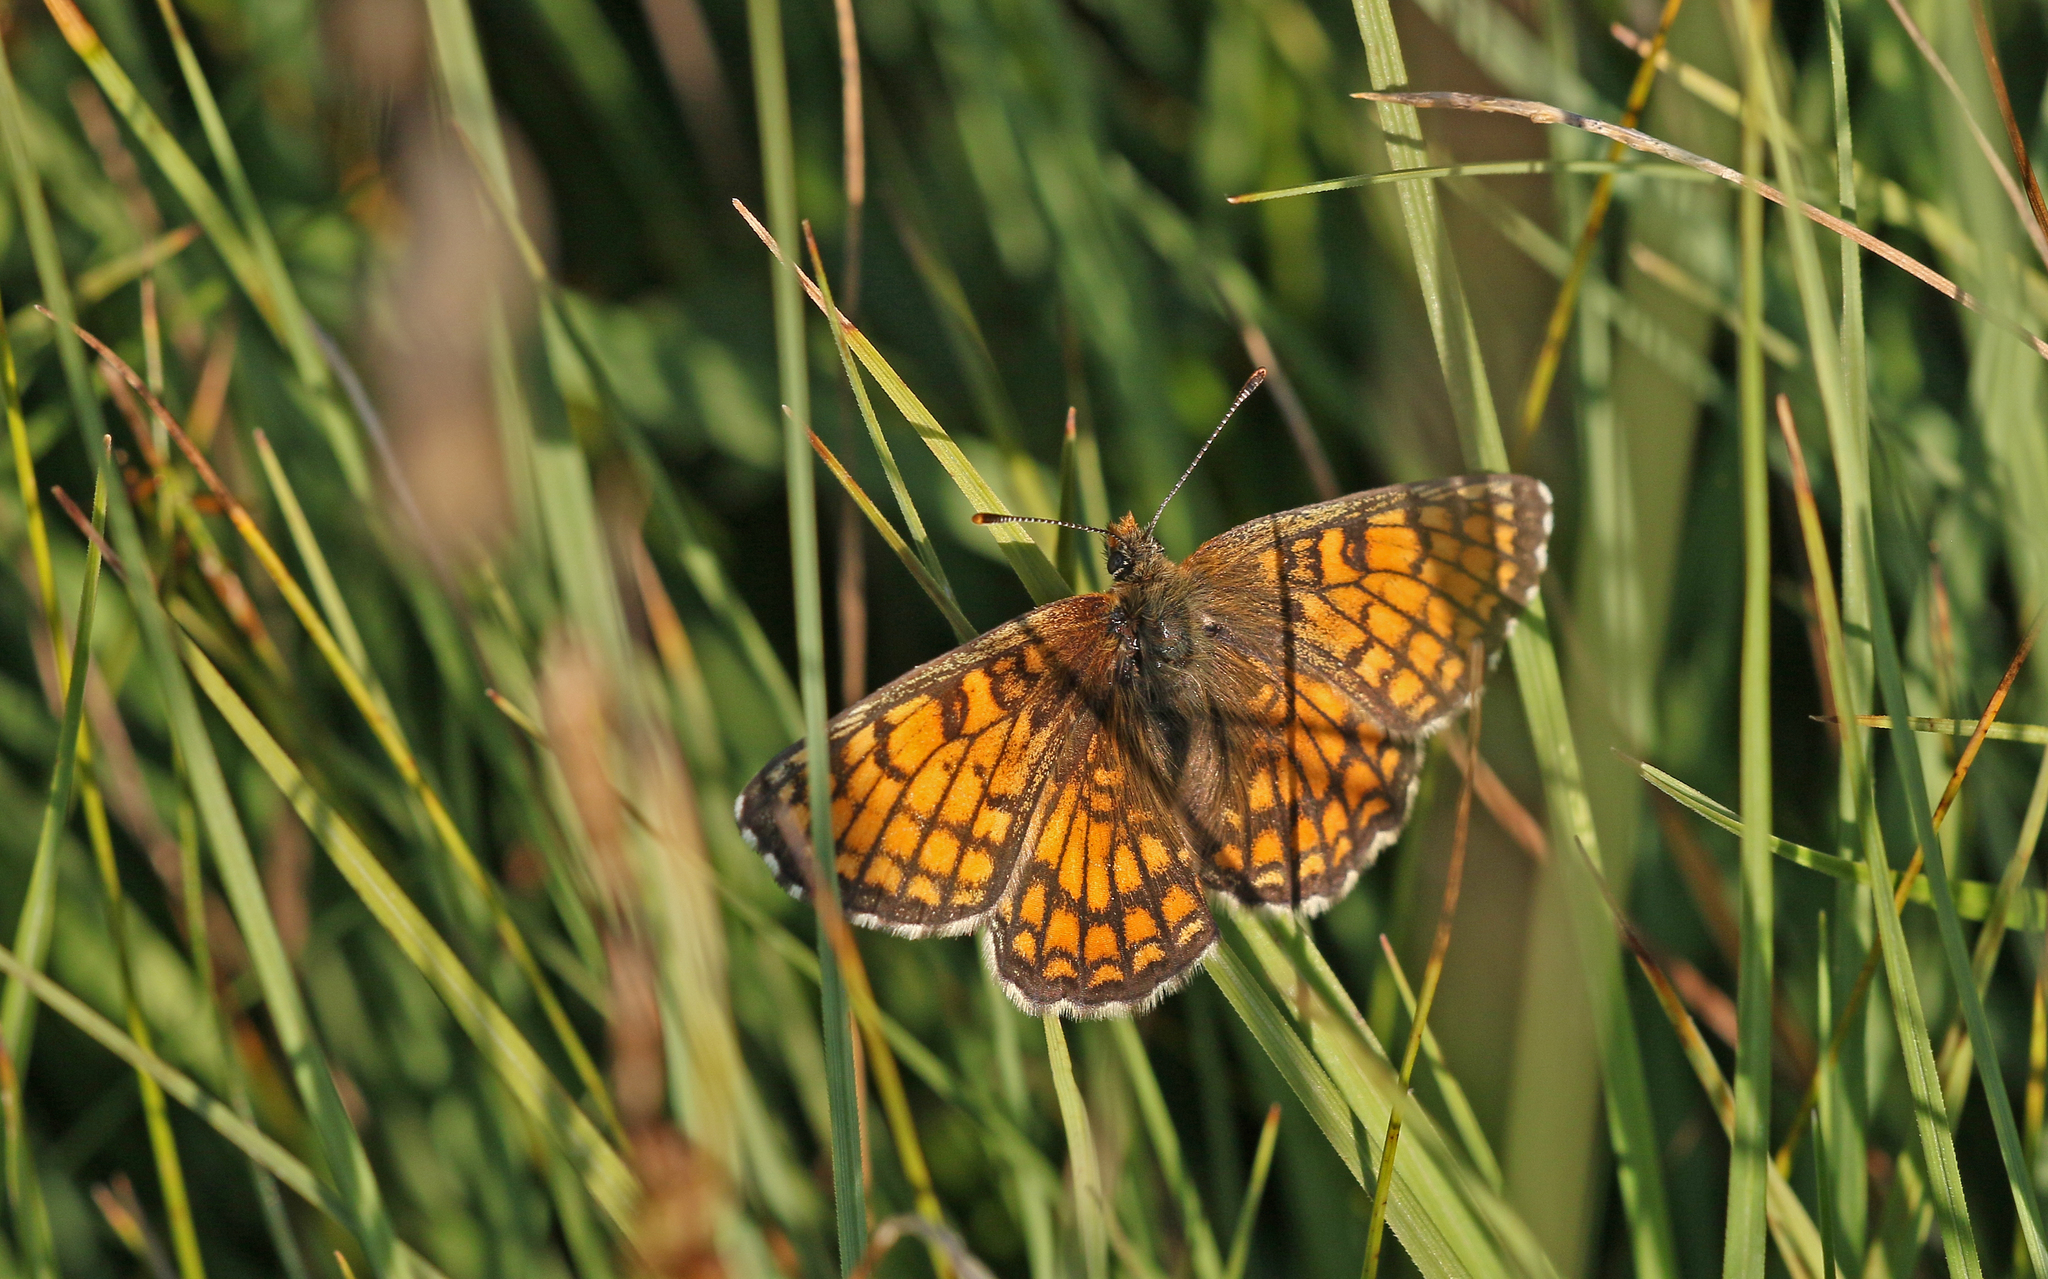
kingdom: Animalia
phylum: Arthropoda
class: Insecta
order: Lepidoptera
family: Nymphalidae
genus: Mellicta
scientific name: Mellicta parthenoides
